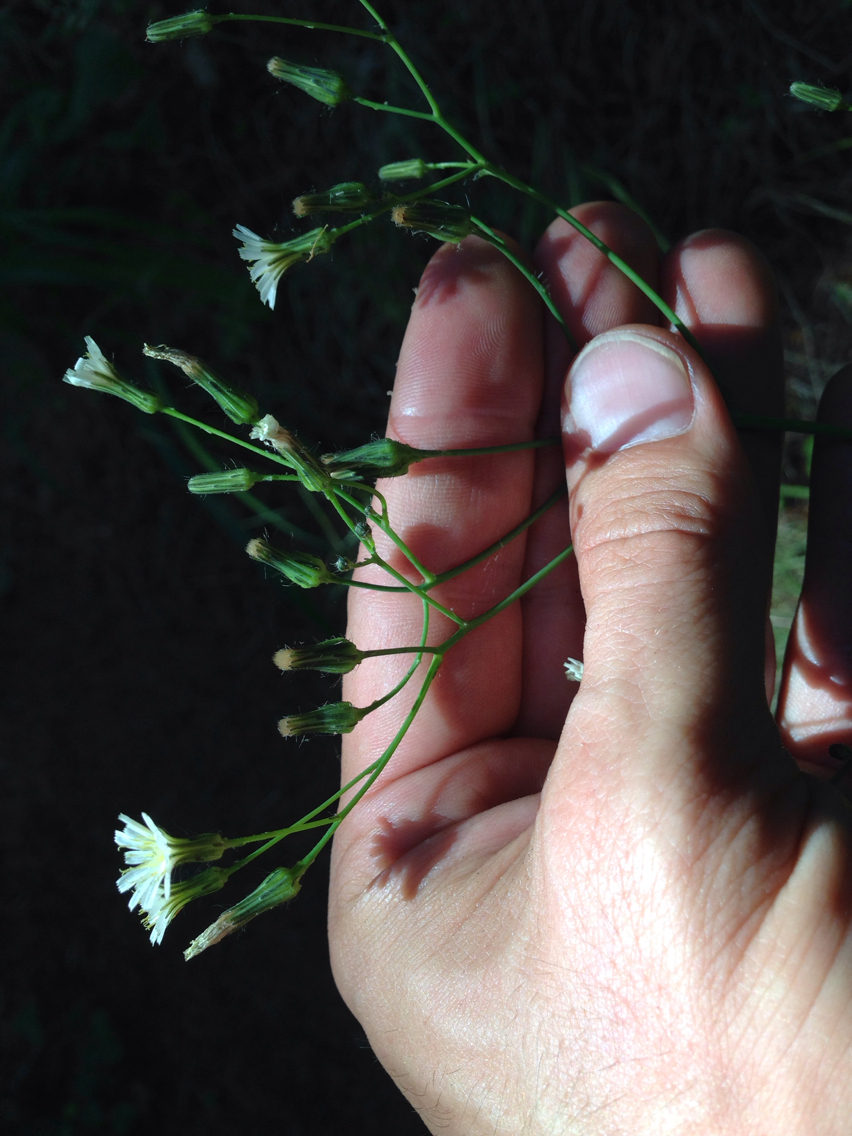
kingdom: Plantae
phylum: Tracheophyta
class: Magnoliopsida
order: Asterales
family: Asteraceae
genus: Hieracium
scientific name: Hieracium albiflorum
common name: White hawkweed
